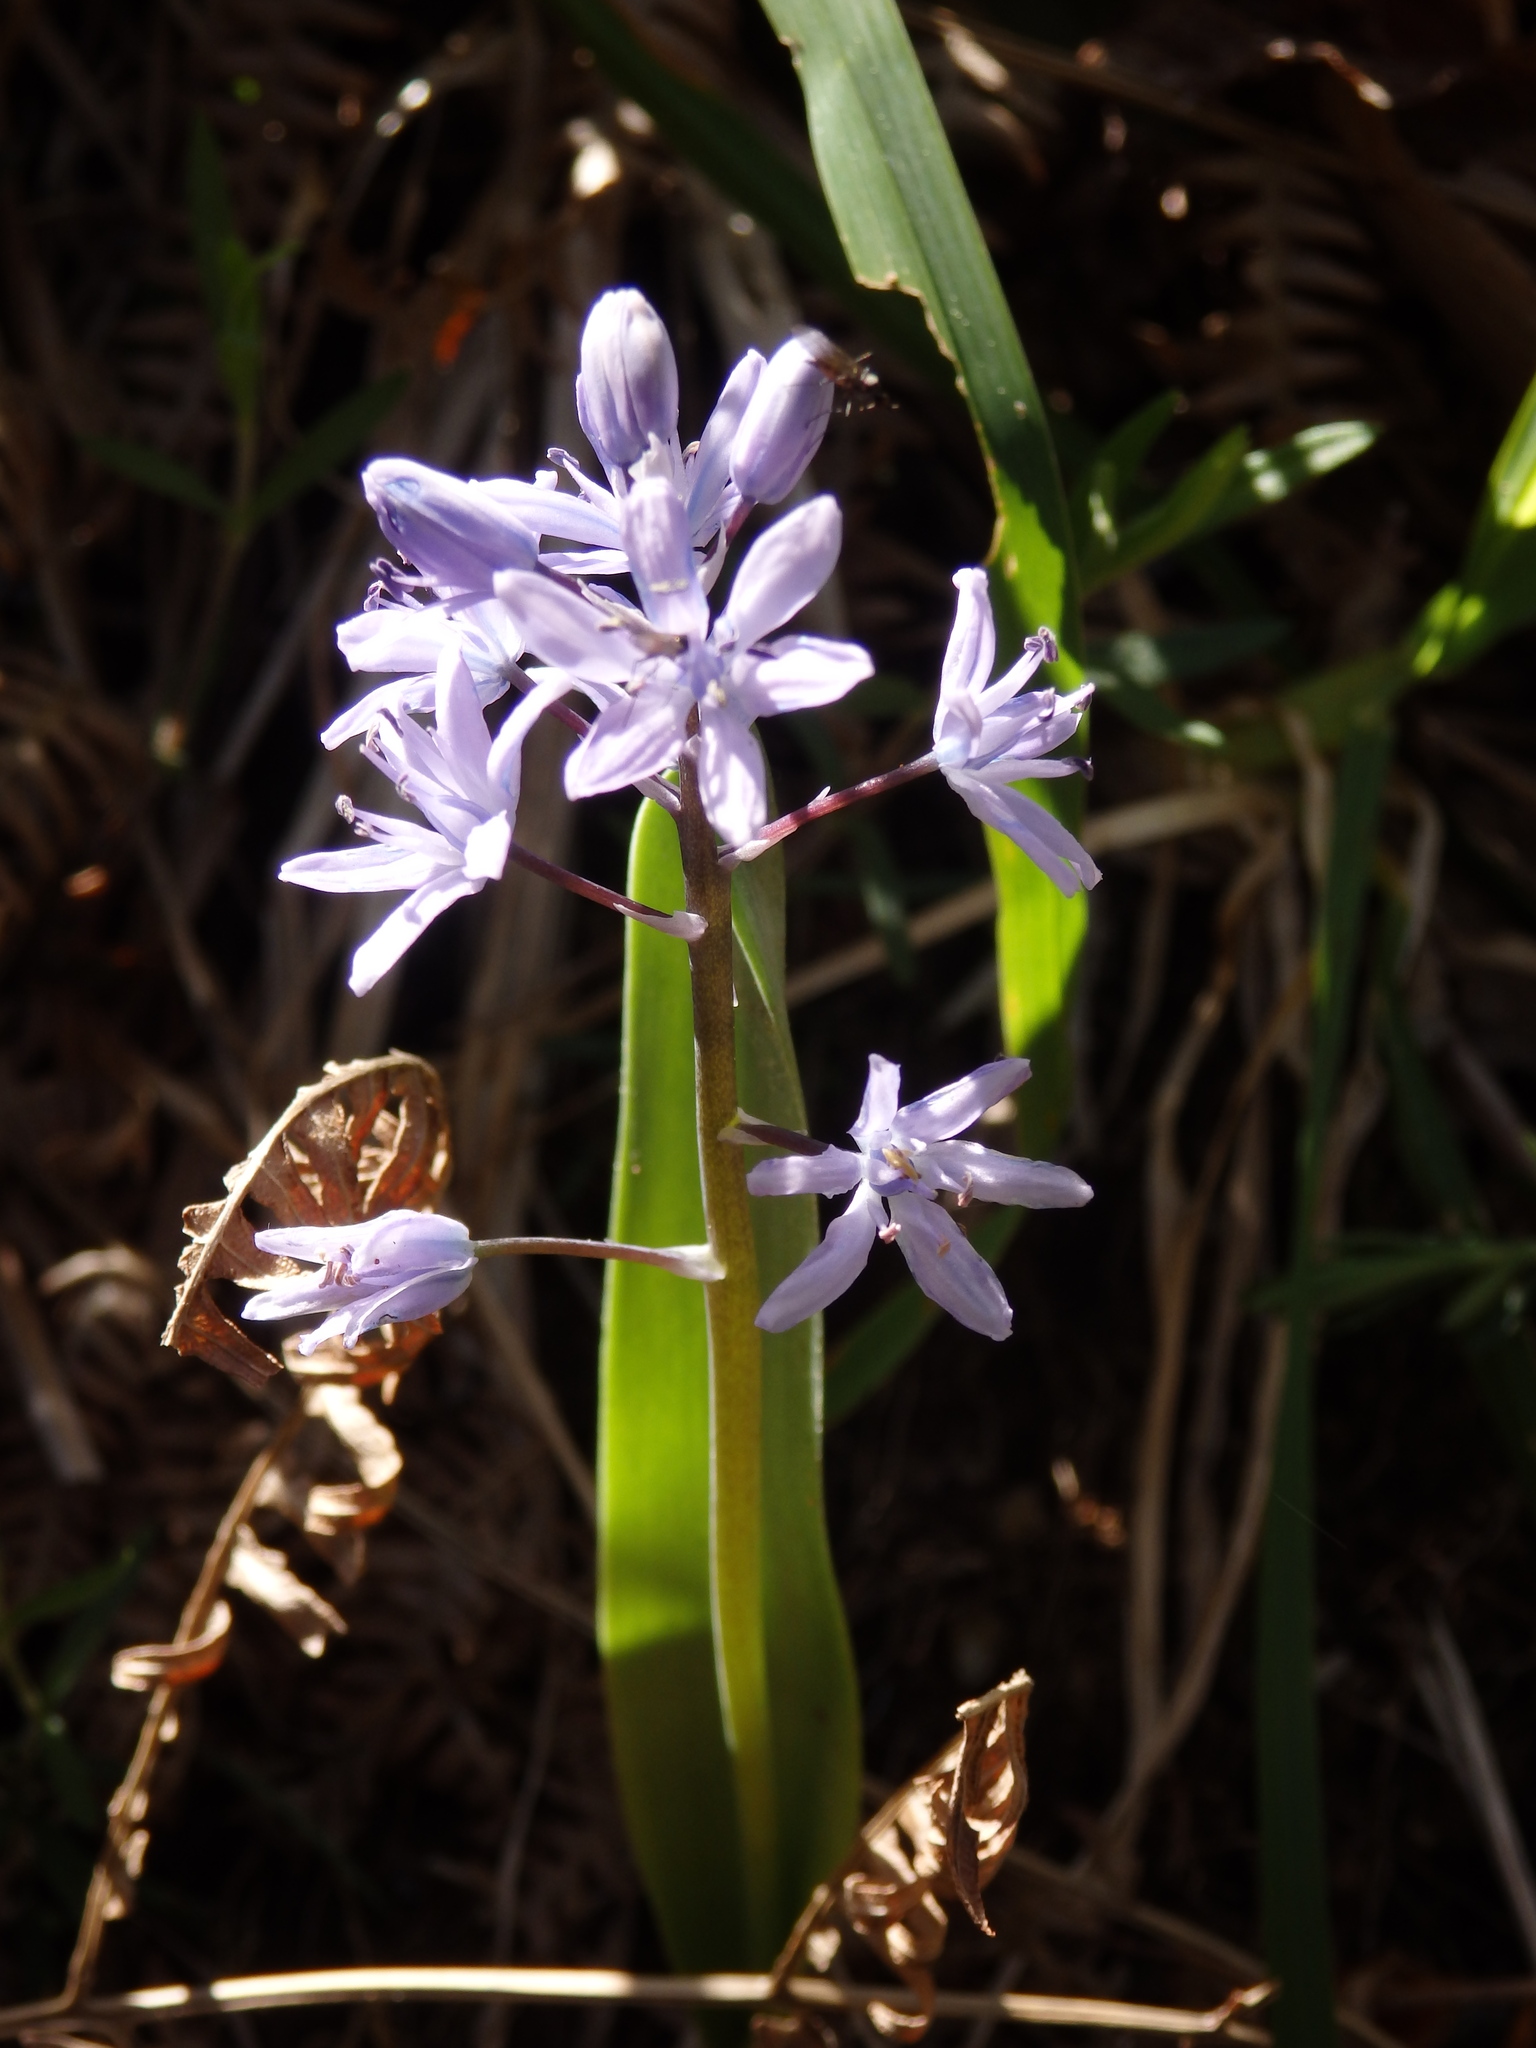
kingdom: Plantae
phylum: Tracheophyta
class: Liliopsida
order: Asparagales
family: Asparagaceae
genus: Scilla
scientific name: Scilla monophyllos
